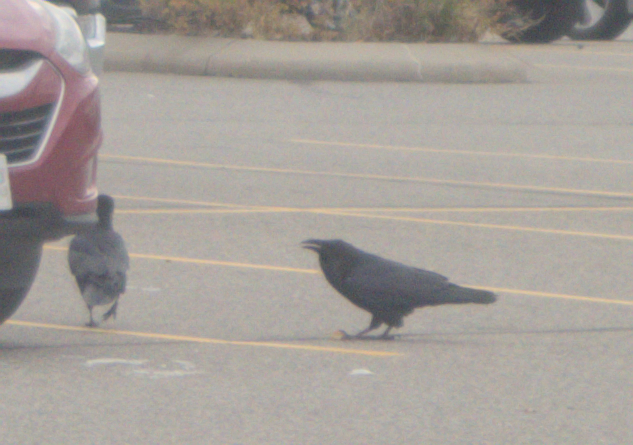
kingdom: Animalia
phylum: Chordata
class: Aves
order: Passeriformes
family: Corvidae
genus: Corvus
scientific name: Corvus corax
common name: Common raven
